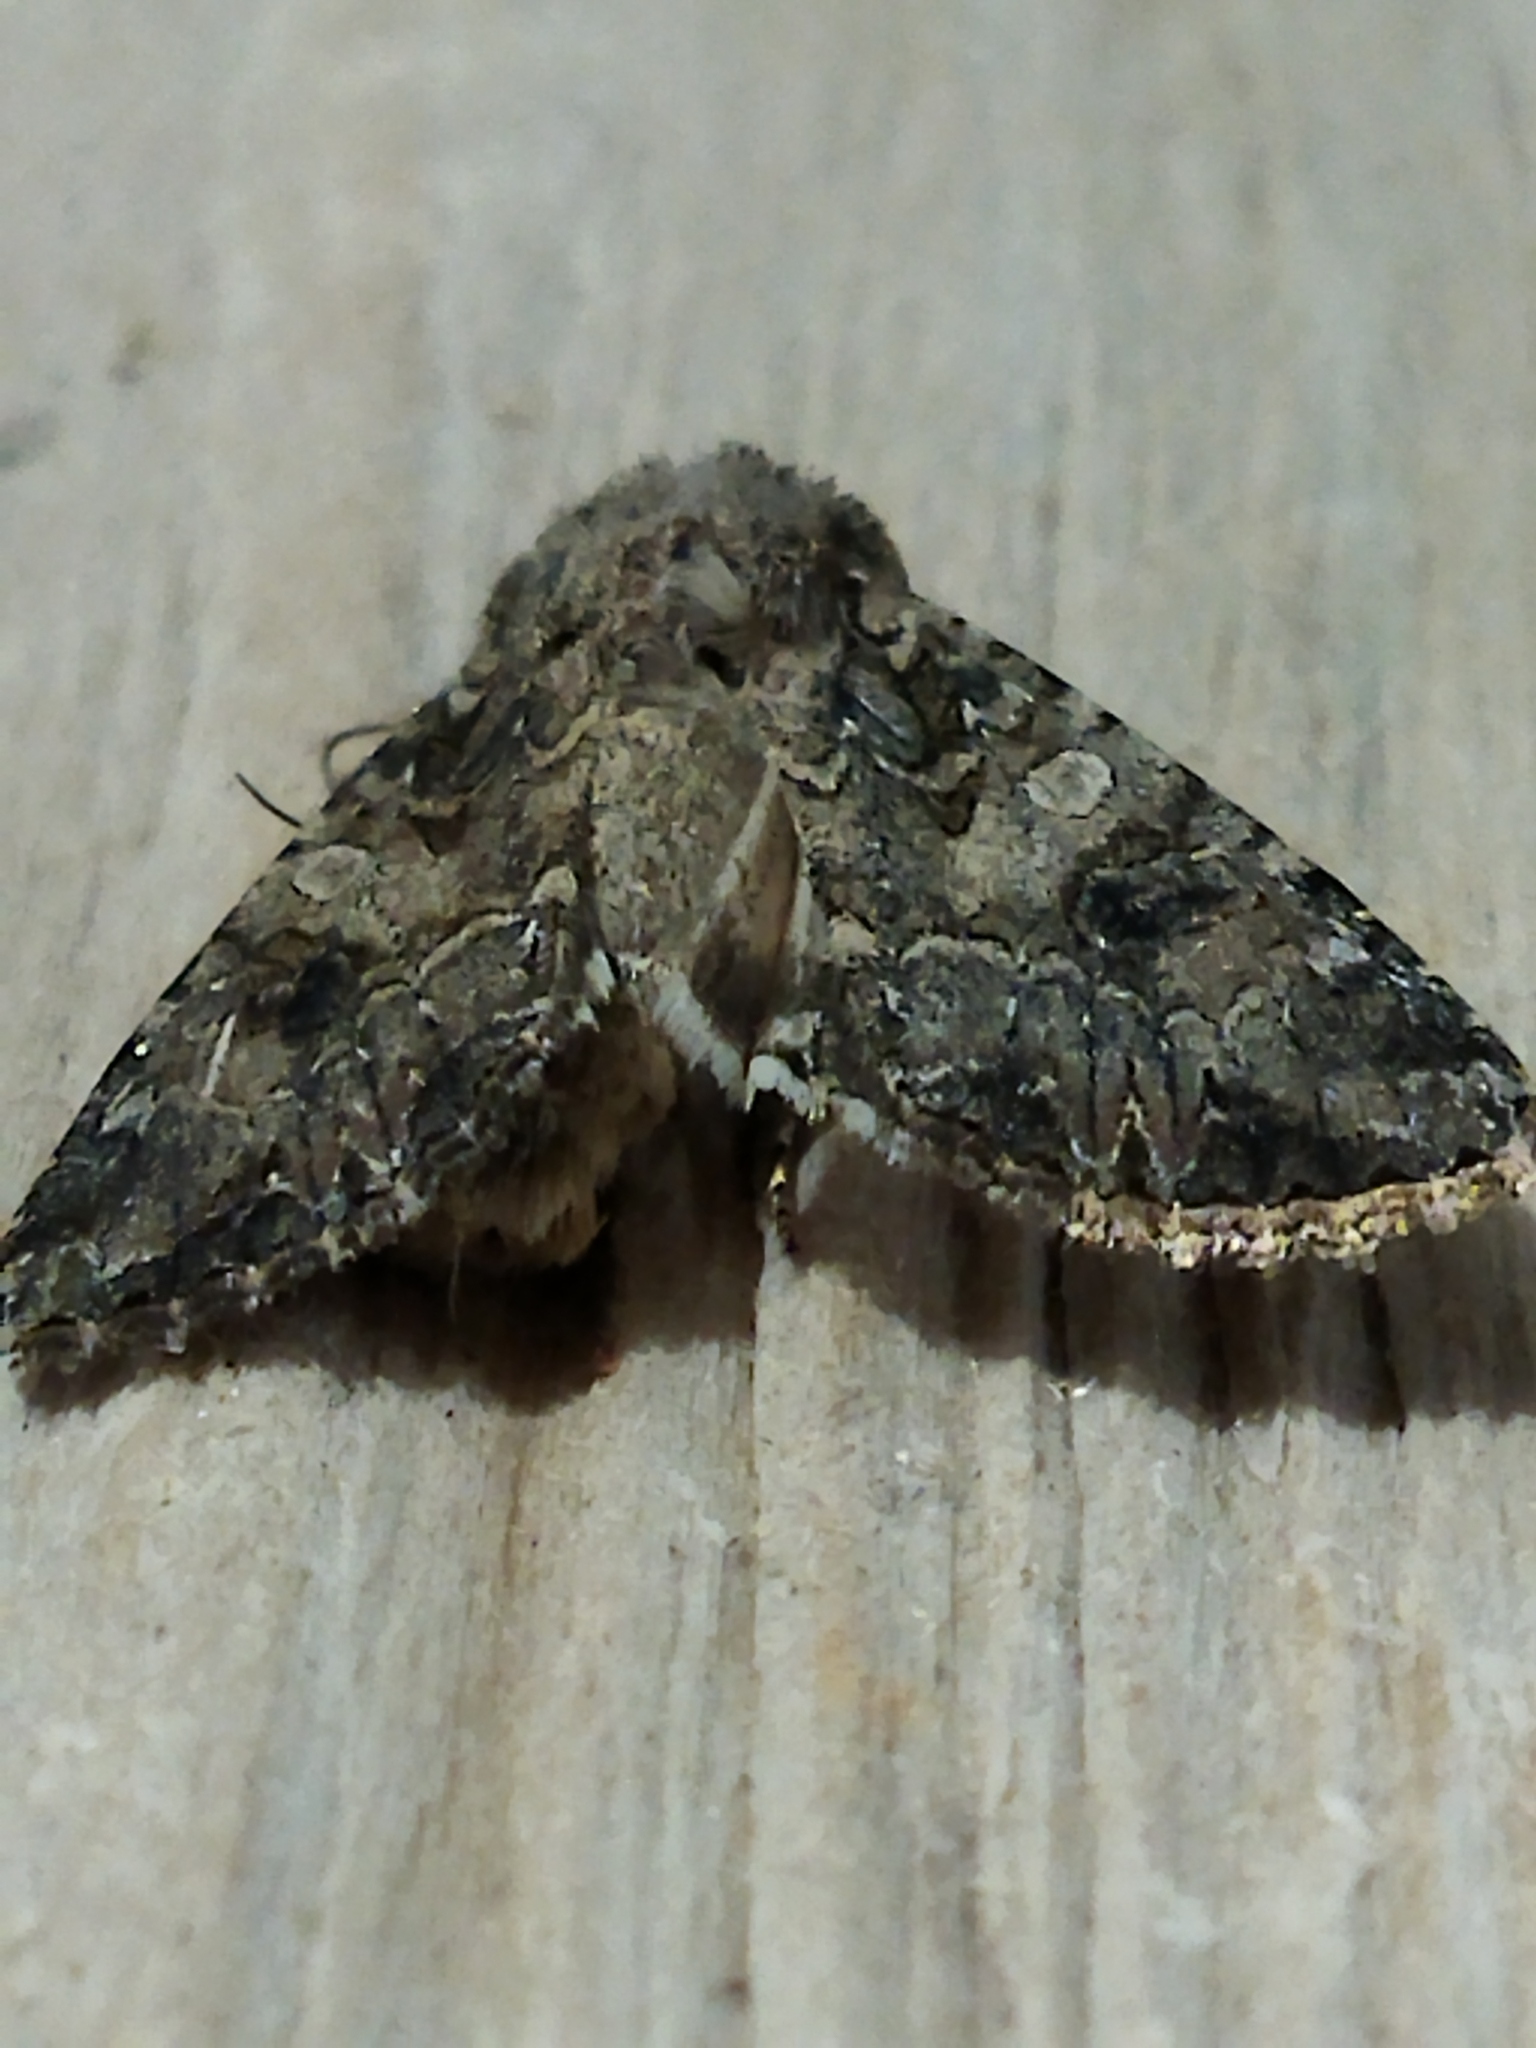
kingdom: Animalia
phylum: Arthropoda
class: Insecta
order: Lepidoptera
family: Noctuidae
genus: Anarta
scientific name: Anarta trifolii
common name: Clover cutworm moth
